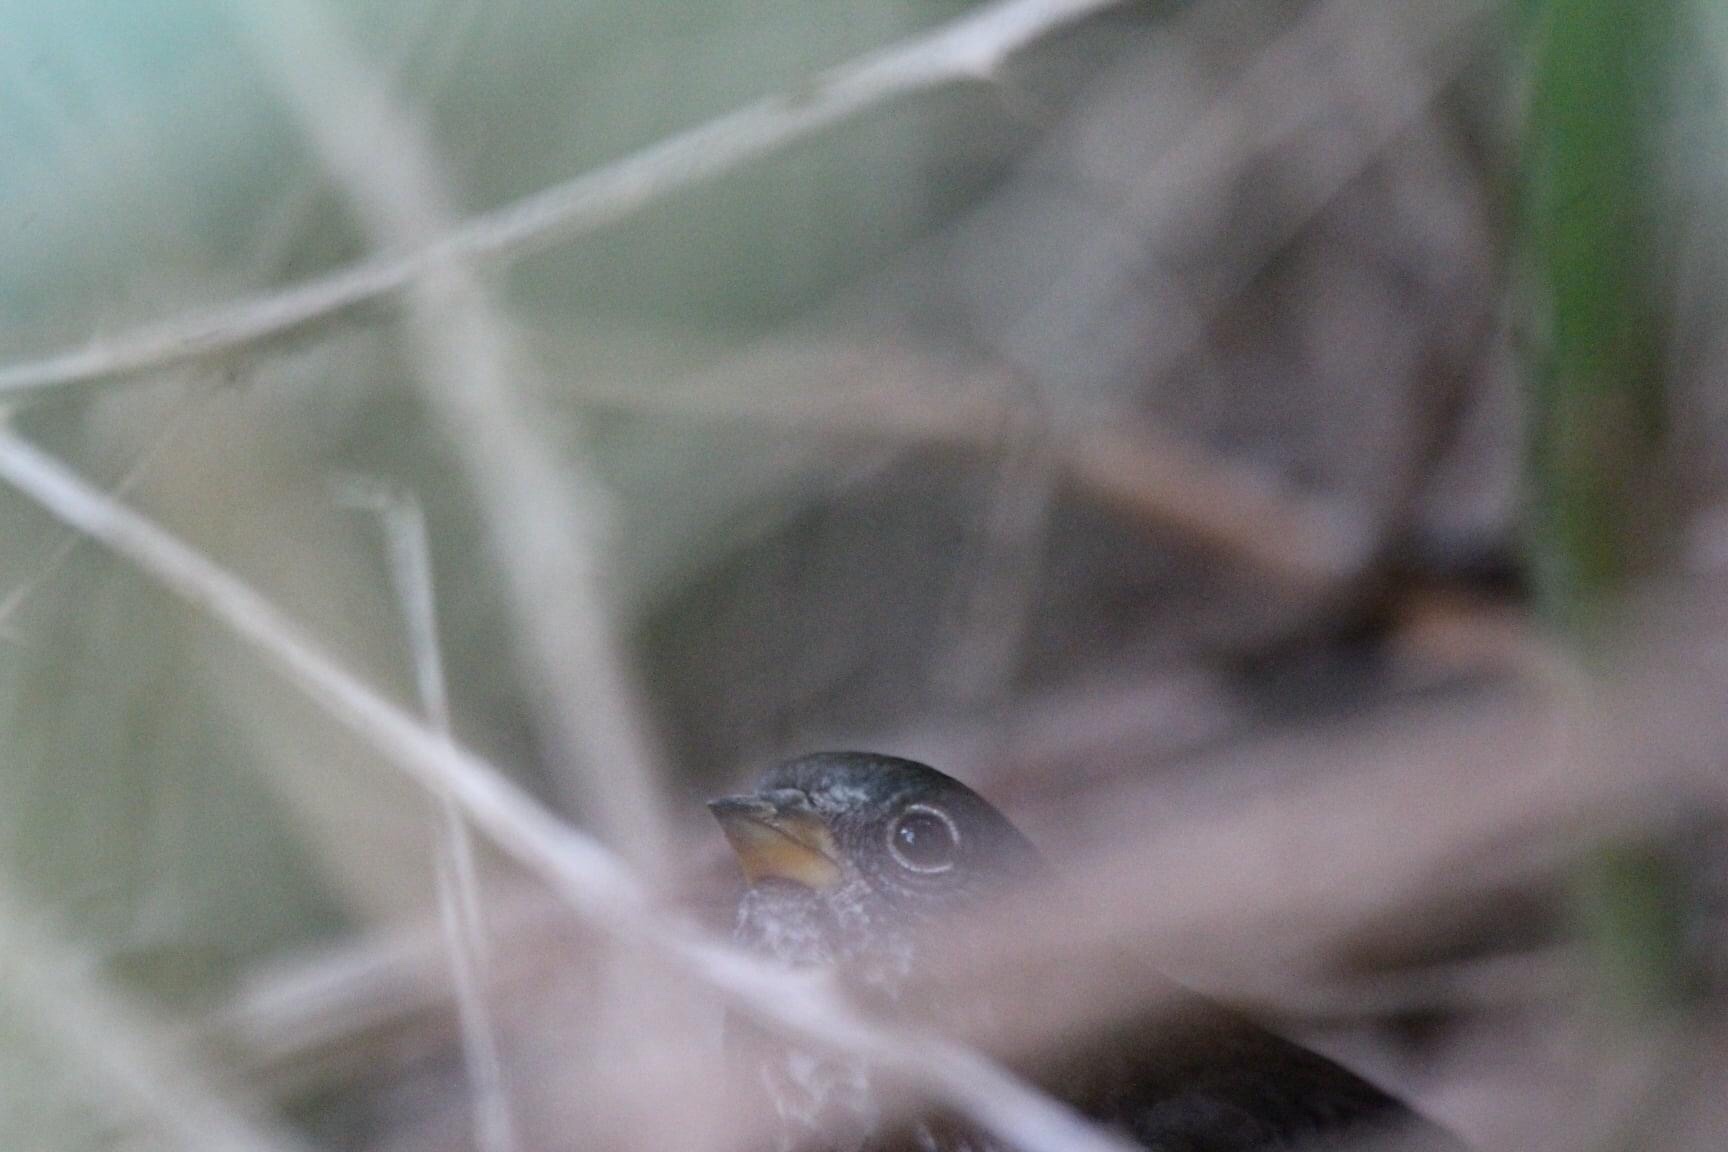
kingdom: Animalia
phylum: Chordata
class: Aves
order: Passeriformes
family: Passerellidae
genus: Passerella
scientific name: Passerella iliaca
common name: Fox sparrow
